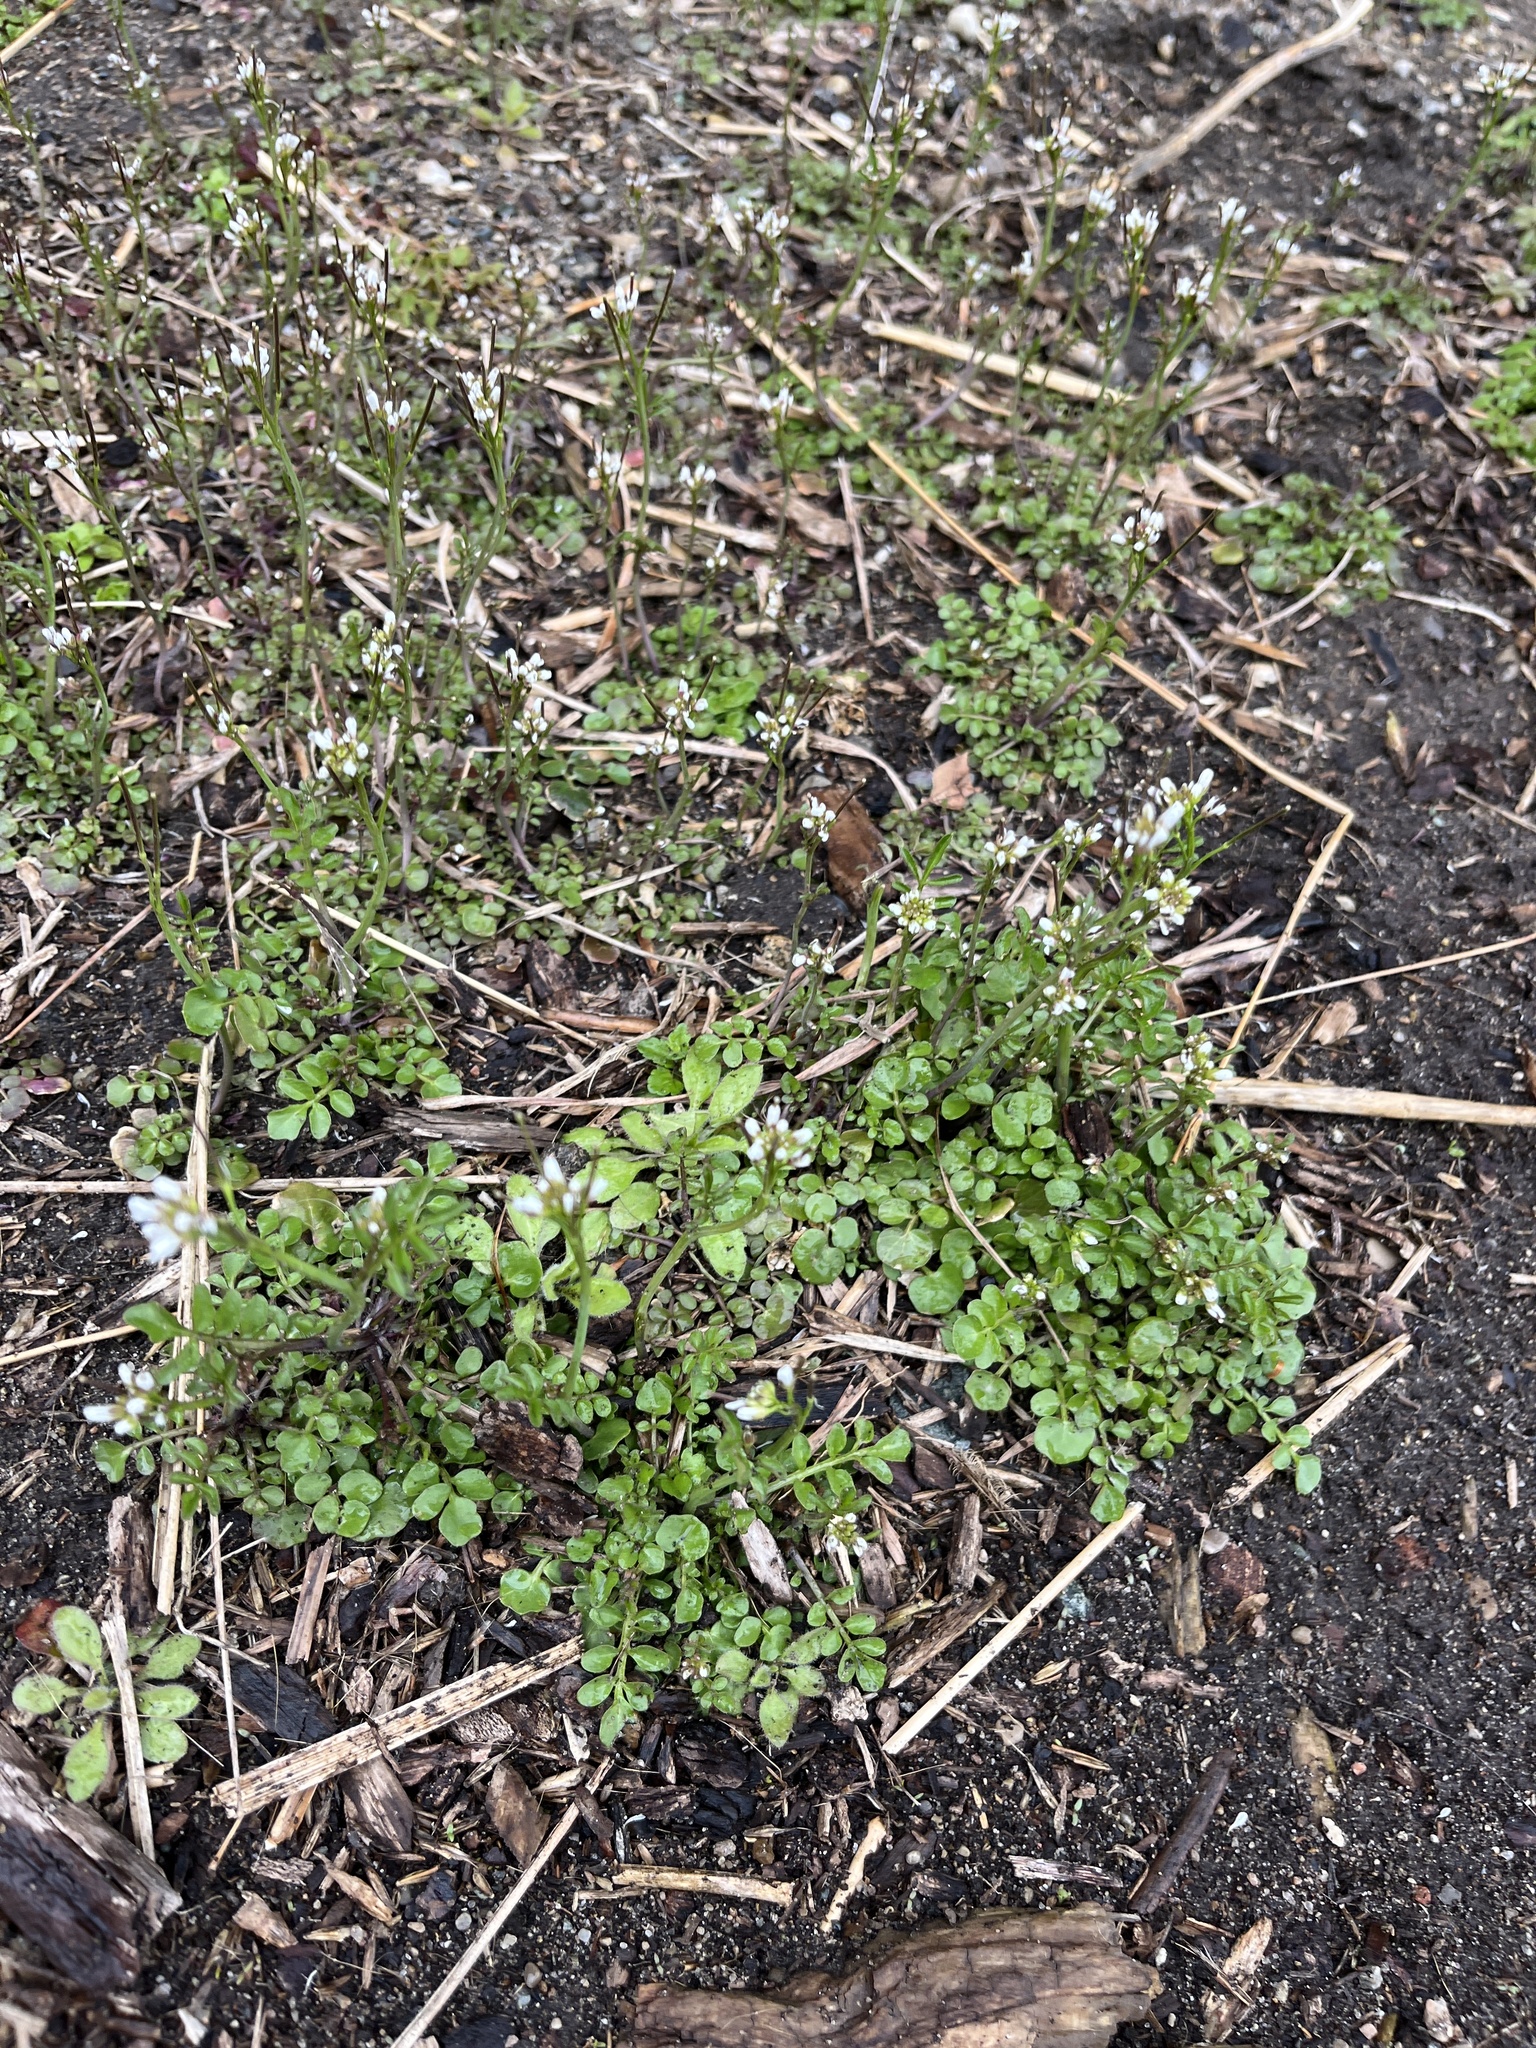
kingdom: Plantae
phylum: Tracheophyta
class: Magnoliopsida
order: Brassicales
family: Brassicaceae
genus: Cardamine
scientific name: Cardamine hirsuta
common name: Hairy bittercress
